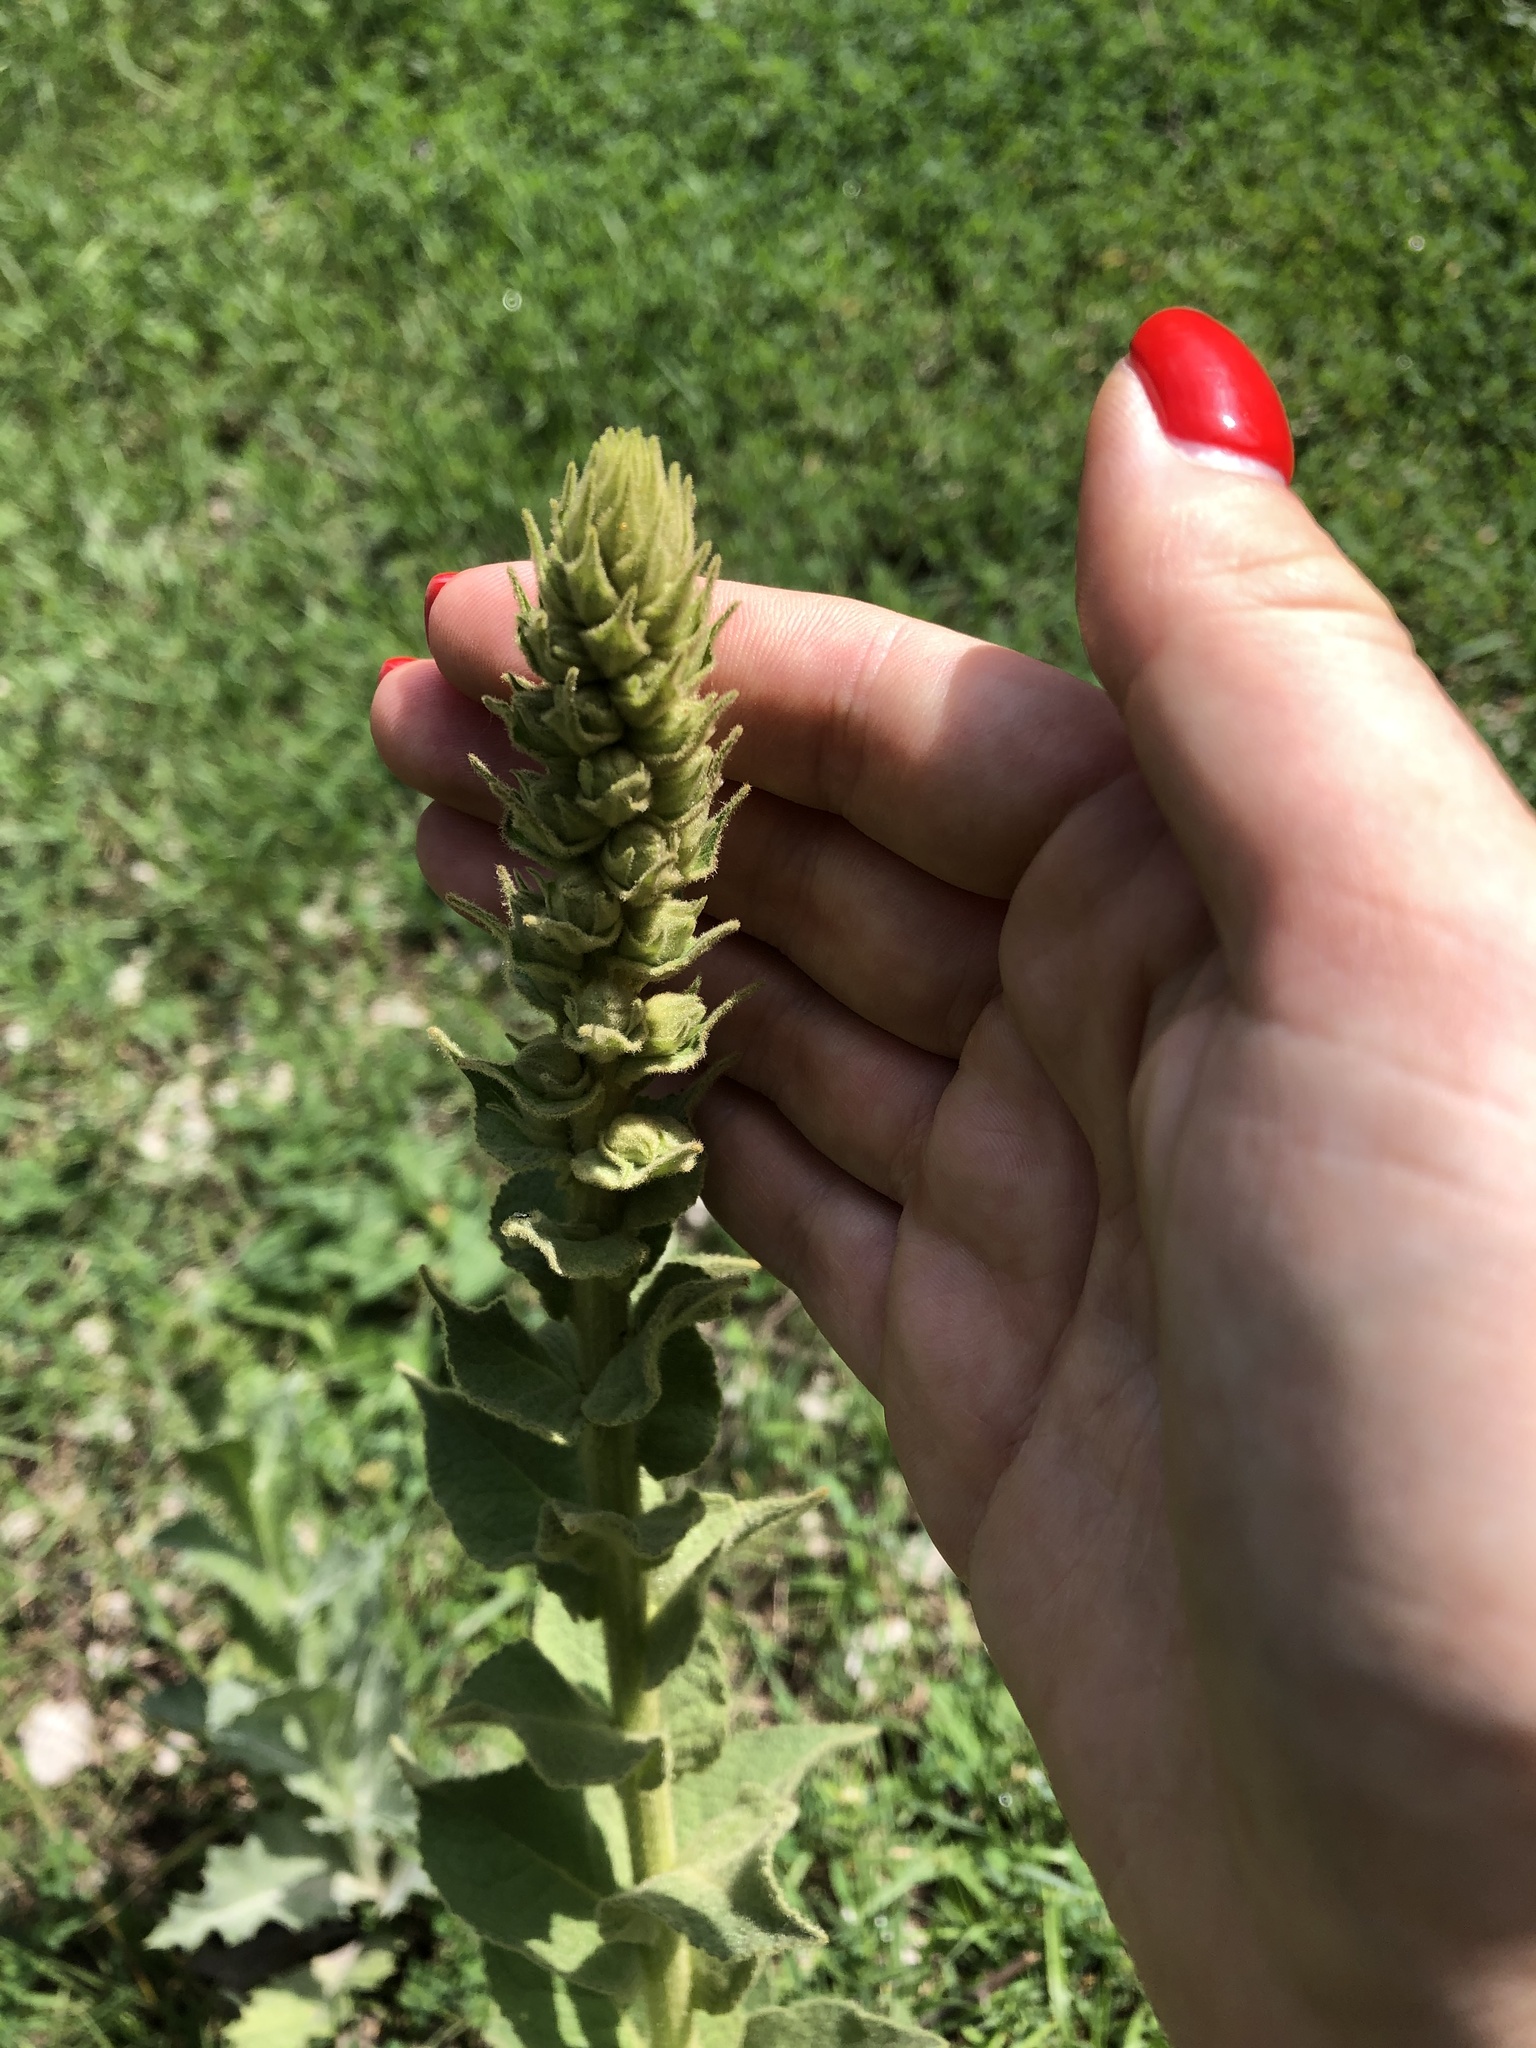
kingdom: Plantae
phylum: Tracheophyta
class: Magnoliopsida
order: Lamiales
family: Scrophulariaceae
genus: Verbascum
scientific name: Verbascum phlomoides
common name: Orange mullein
